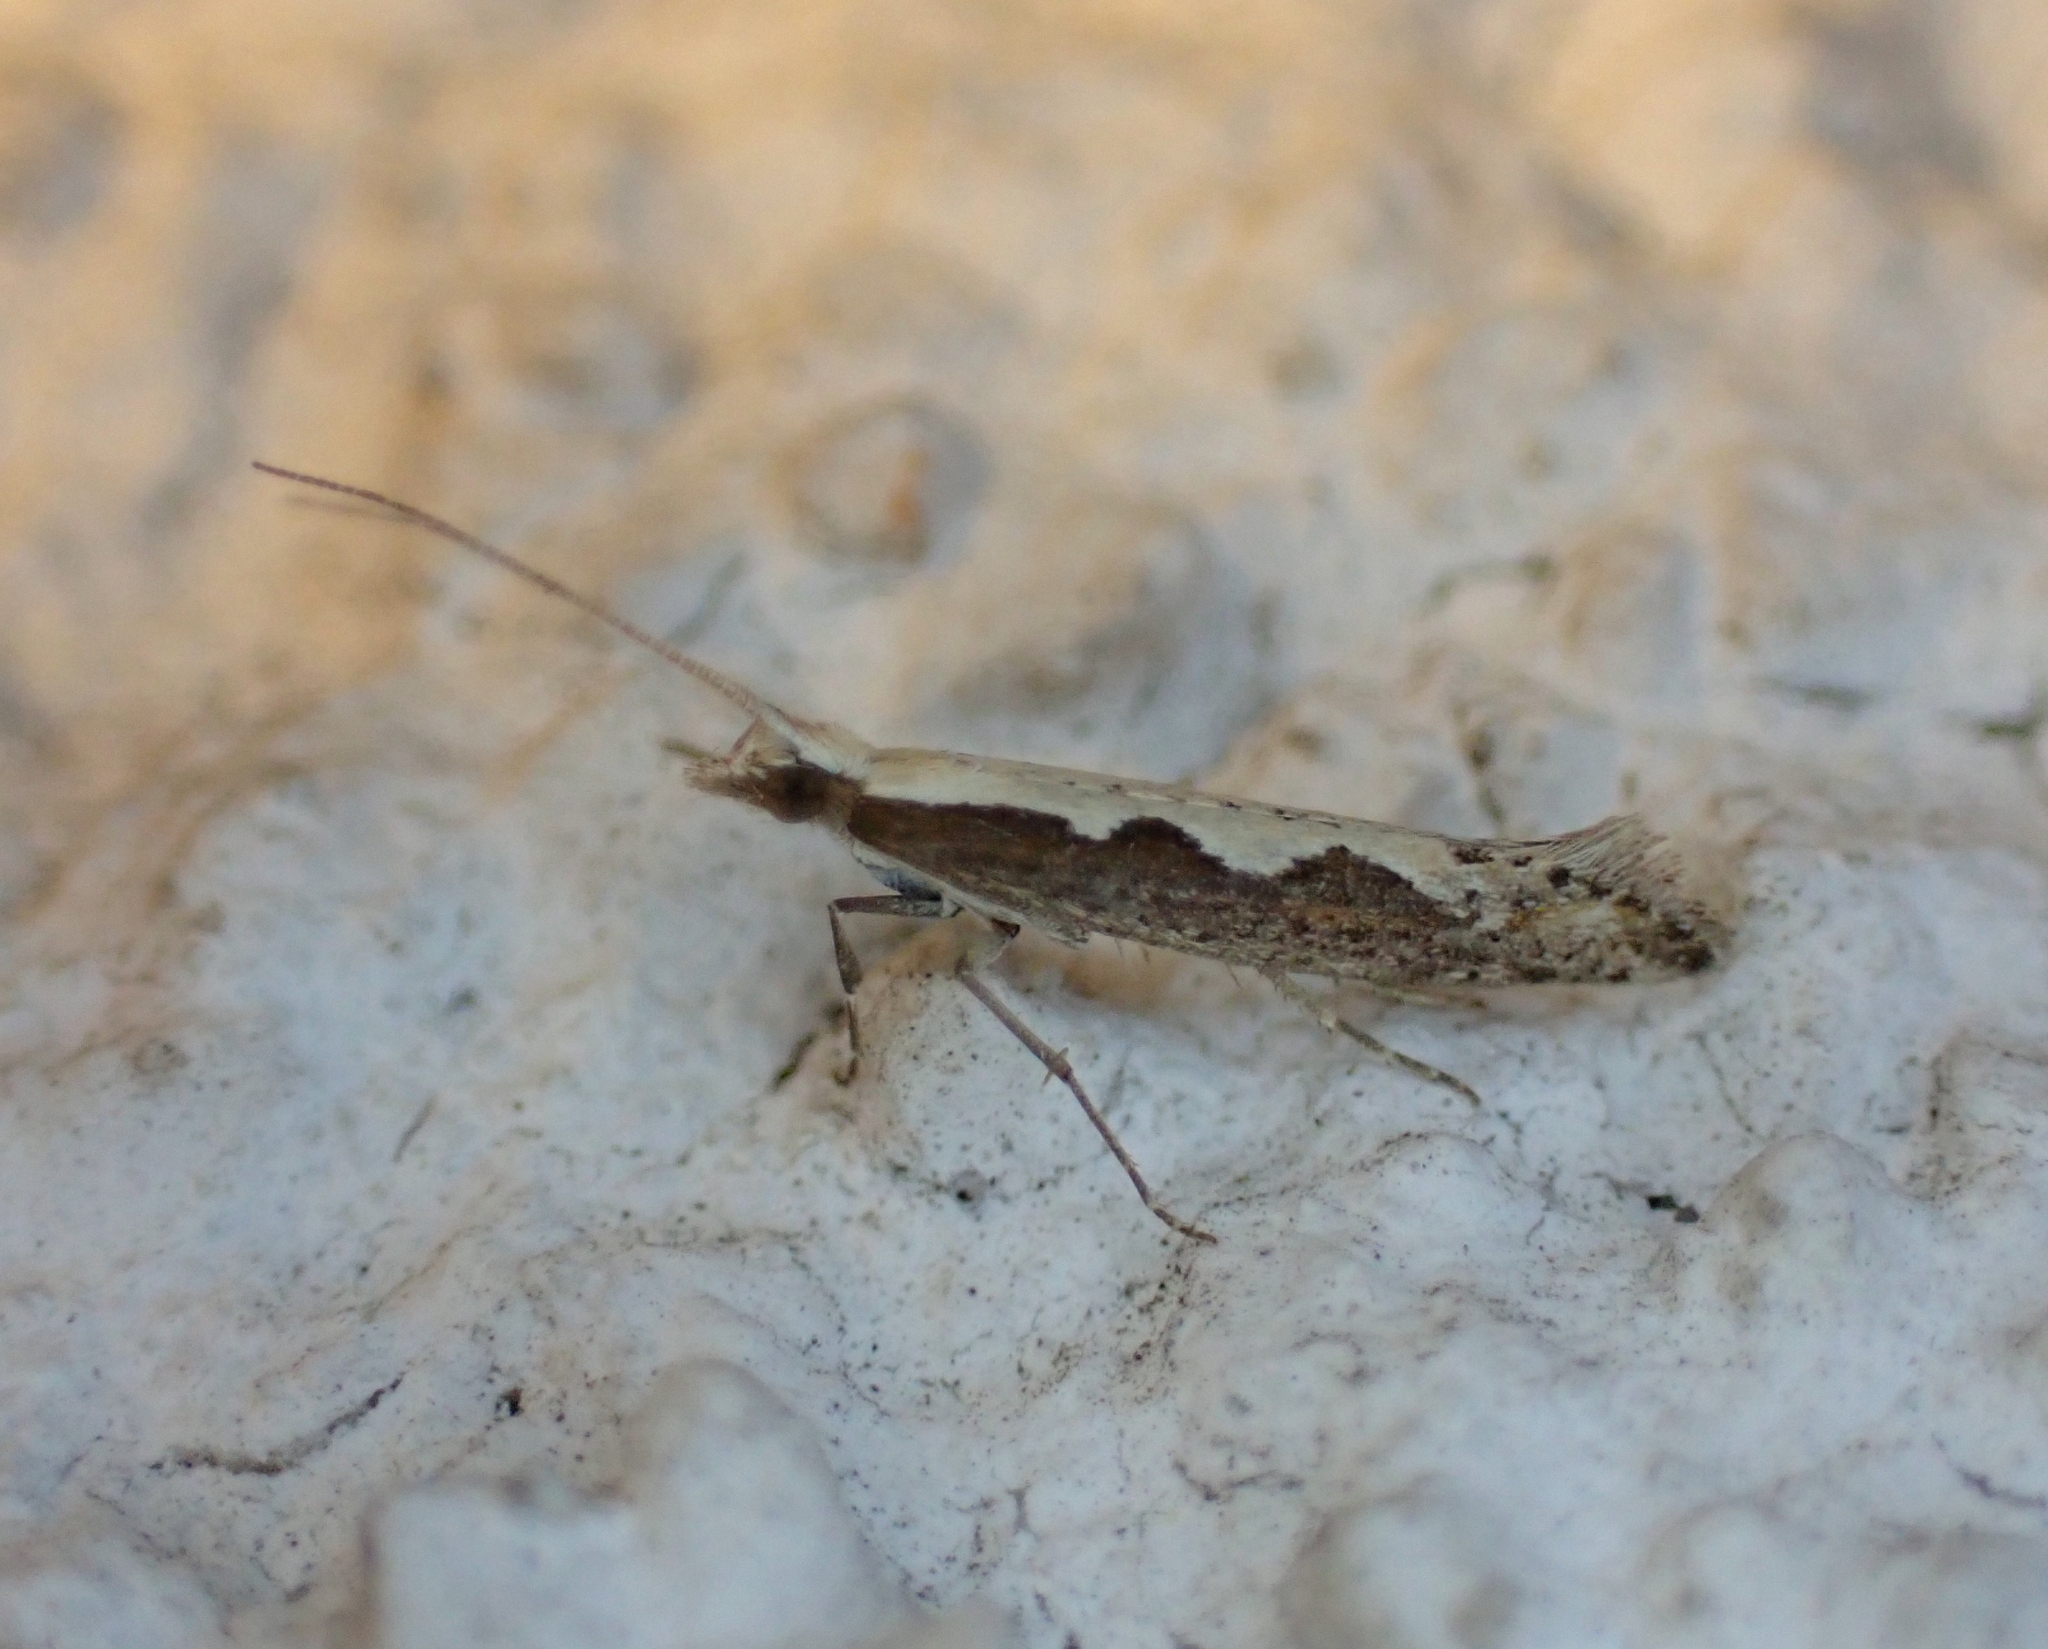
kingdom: Animalia
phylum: Arthropoda
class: Insecta
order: Lepidoptera
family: Plutellidae
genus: Plutella
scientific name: Plutella xylostella
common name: Diamond-back moth
